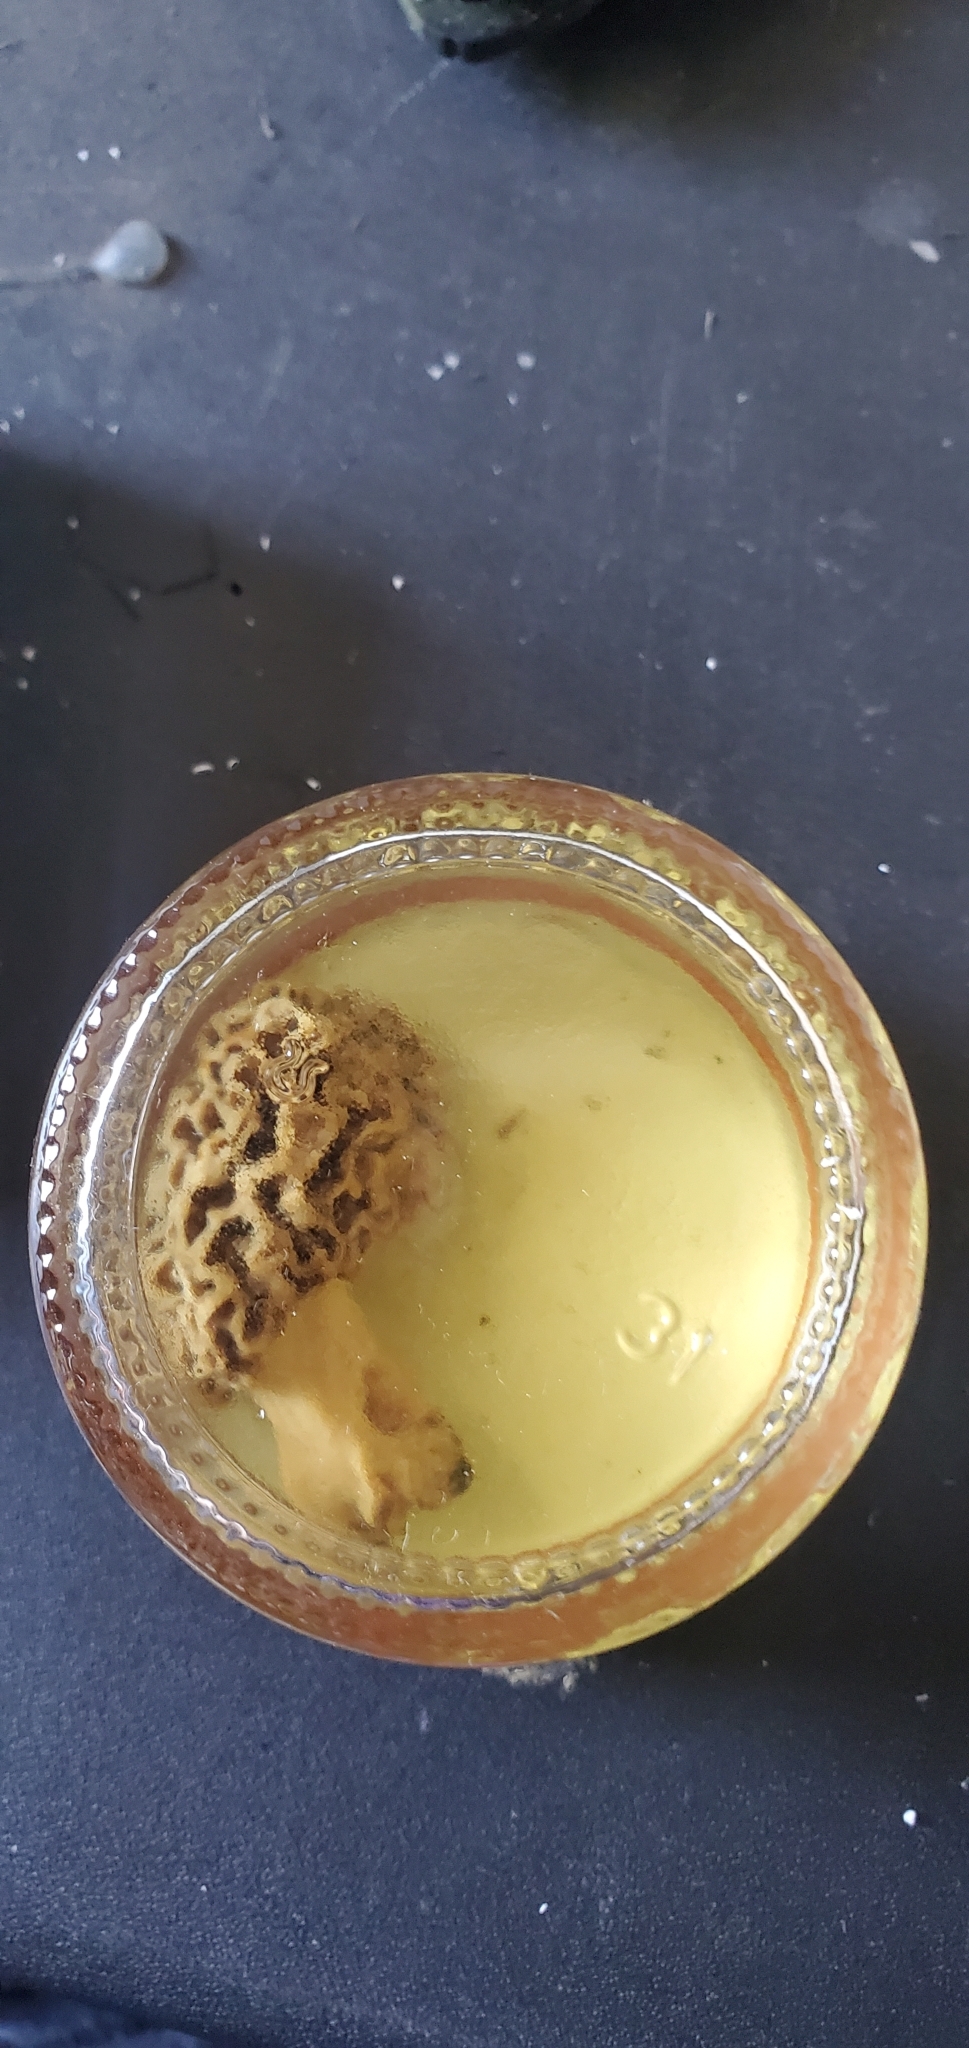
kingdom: Fungi
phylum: Ascomycota
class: Pezizomycetes
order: Pezizales
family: Morchellaceae
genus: Morchella
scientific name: Morchella americana
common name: White morel
